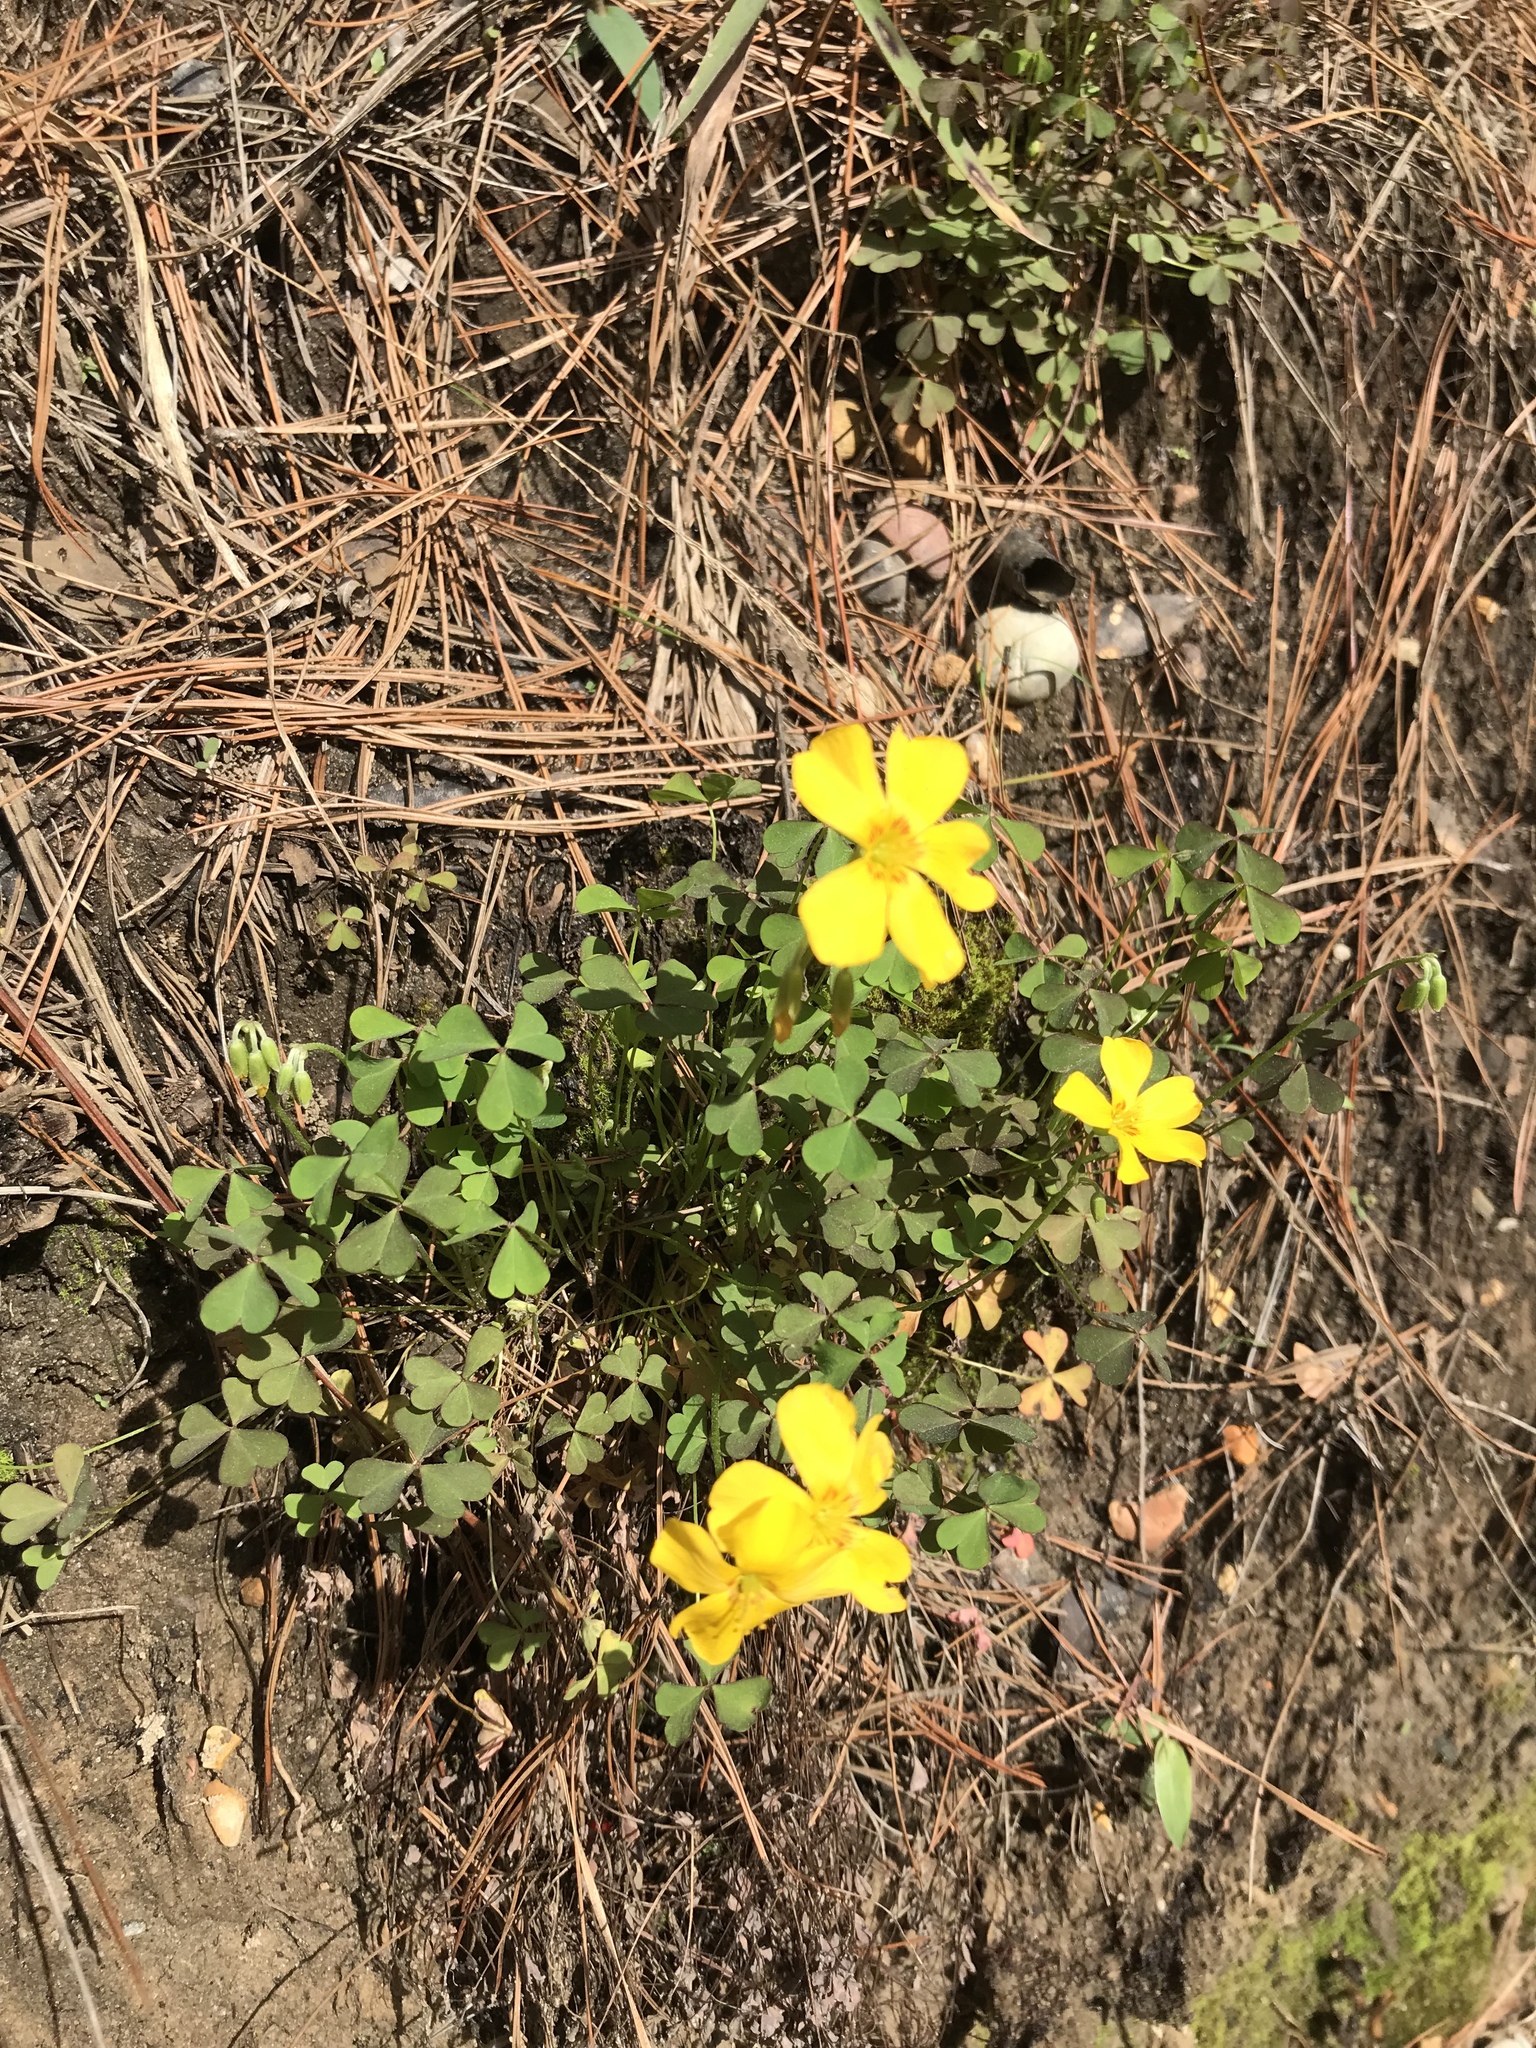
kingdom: Plantae
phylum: Tracheophyta
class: Magnoliopsida
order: Oxalidales
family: Oxalidaceae
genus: Oxalis
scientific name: Oxalis texana
